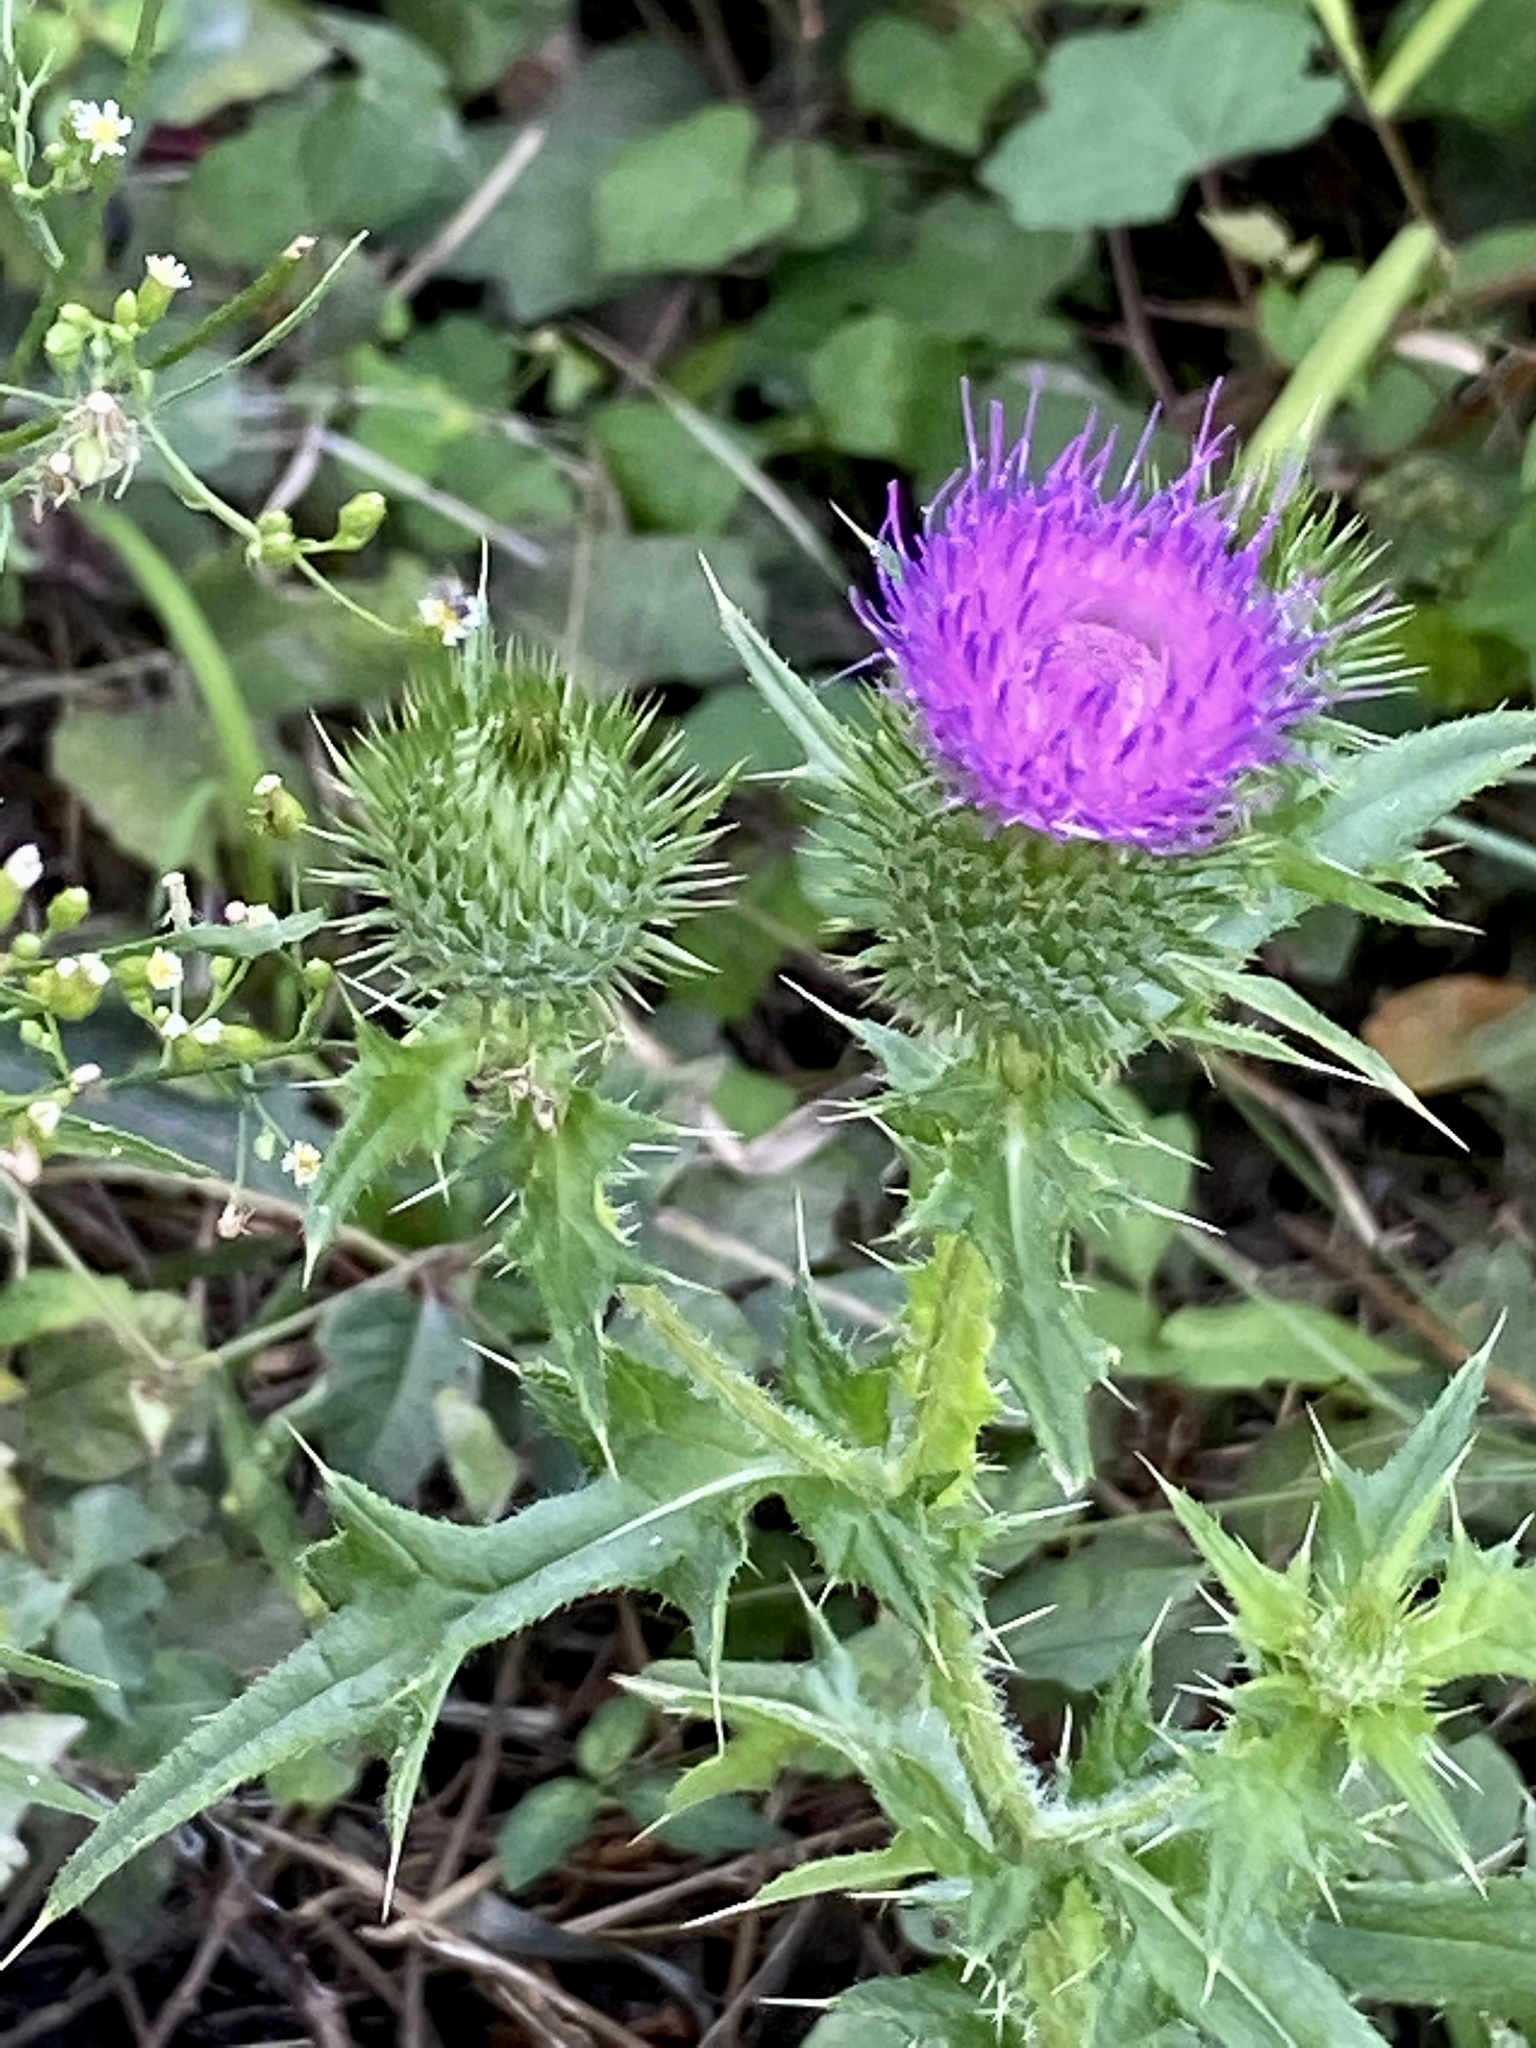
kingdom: Plantae
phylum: Tracheophyta
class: Magnoliopsida
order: Asterales
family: Asteraceae
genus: Cirsium
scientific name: Cirsium vulgare
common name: Bull thistle
